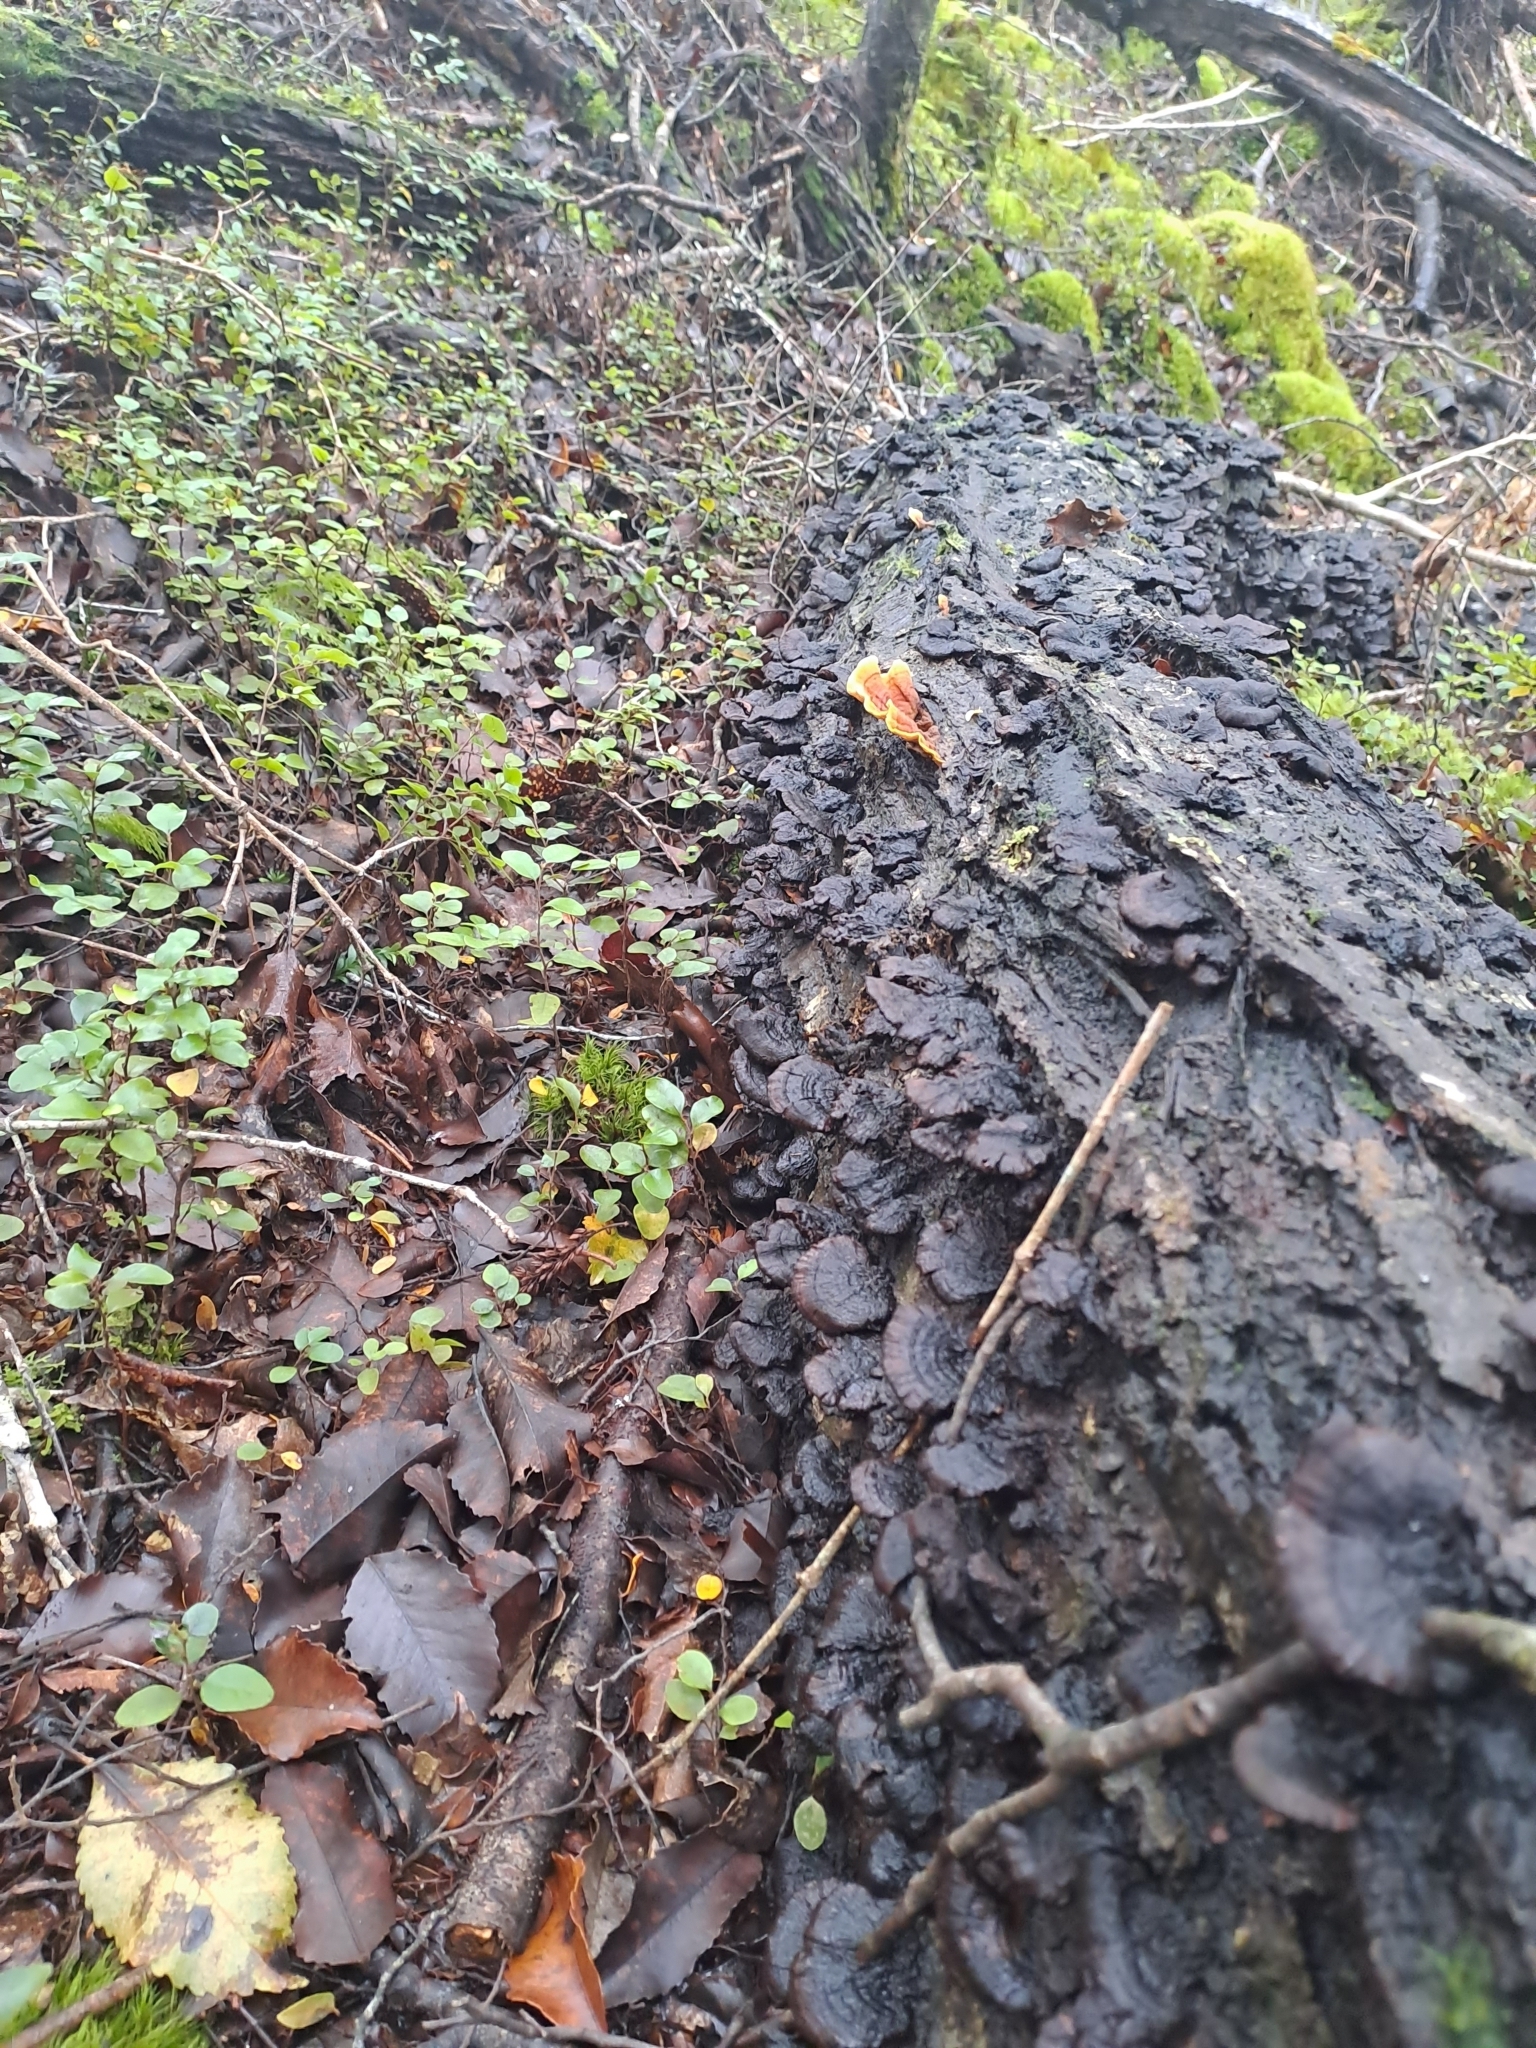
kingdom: Fungi
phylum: Basidiomycota
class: Agaricomycetes
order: Russulales
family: Stereaceae
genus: Stereum
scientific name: Stereum ostrea
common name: False turkeytail
